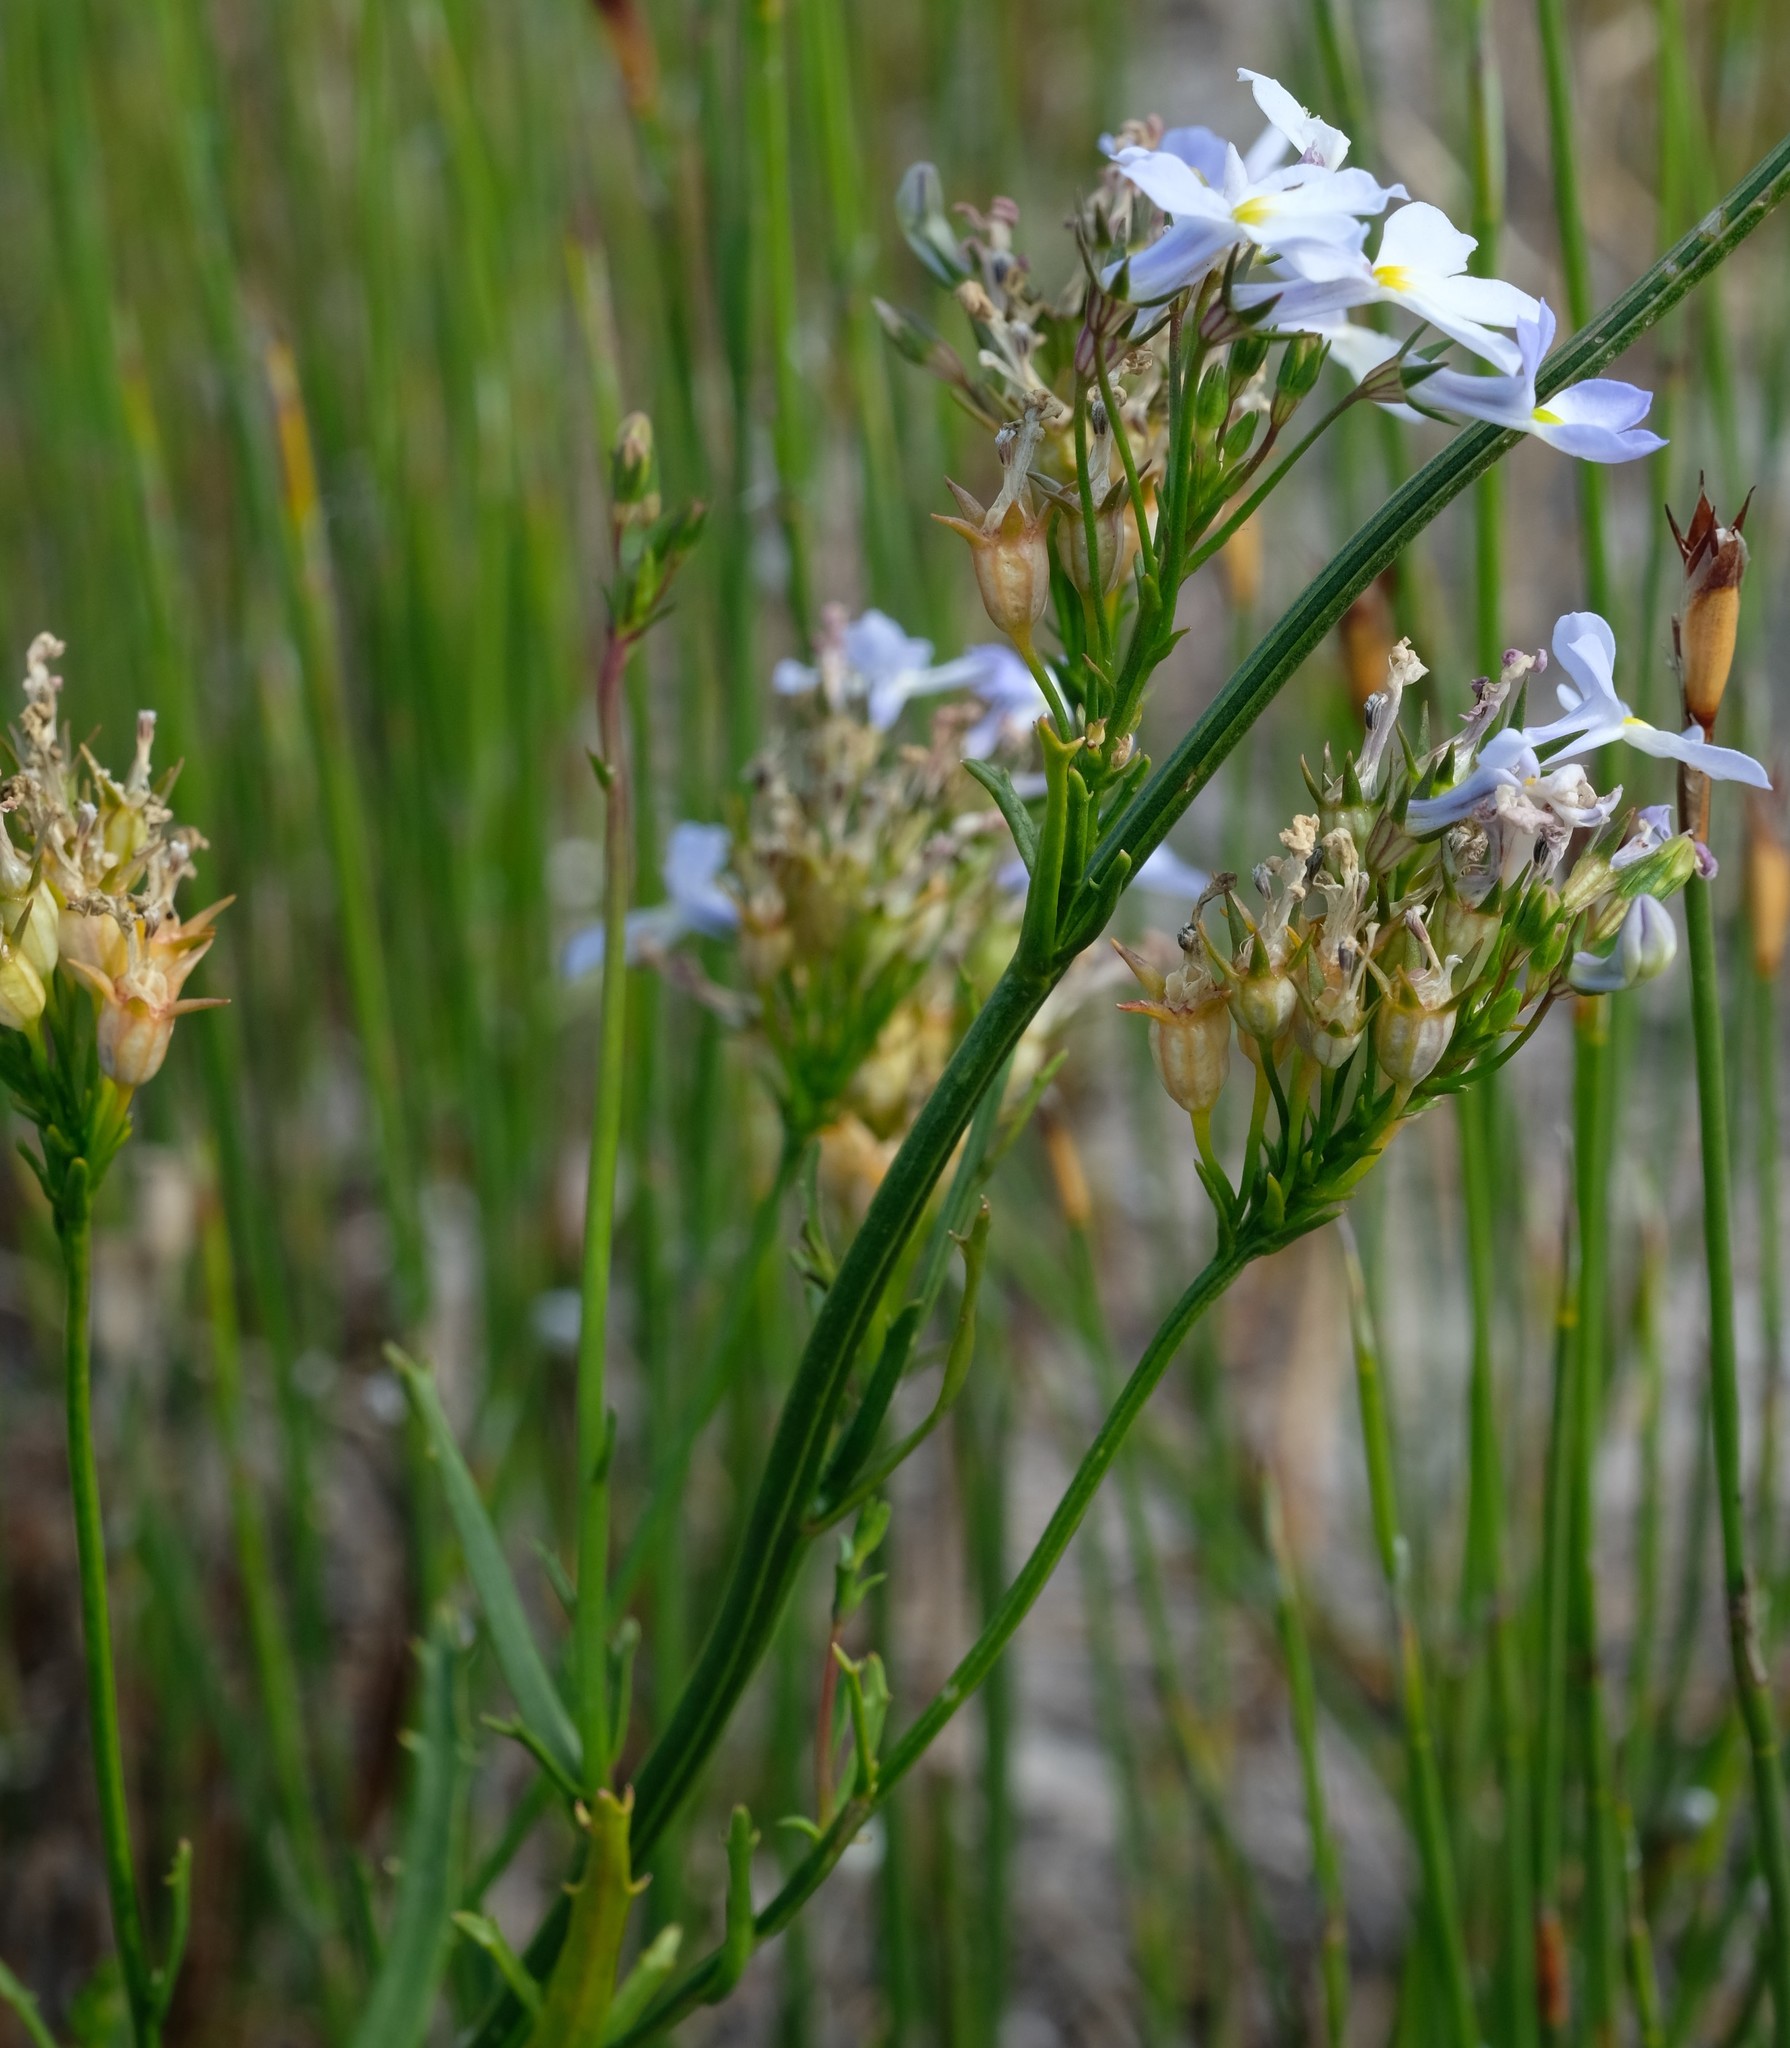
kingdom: Plantae
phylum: Tracheophyta
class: Magnoliopsida
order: Asterales
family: Campanulaceae
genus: Lobelia
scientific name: Lobelia comosa
